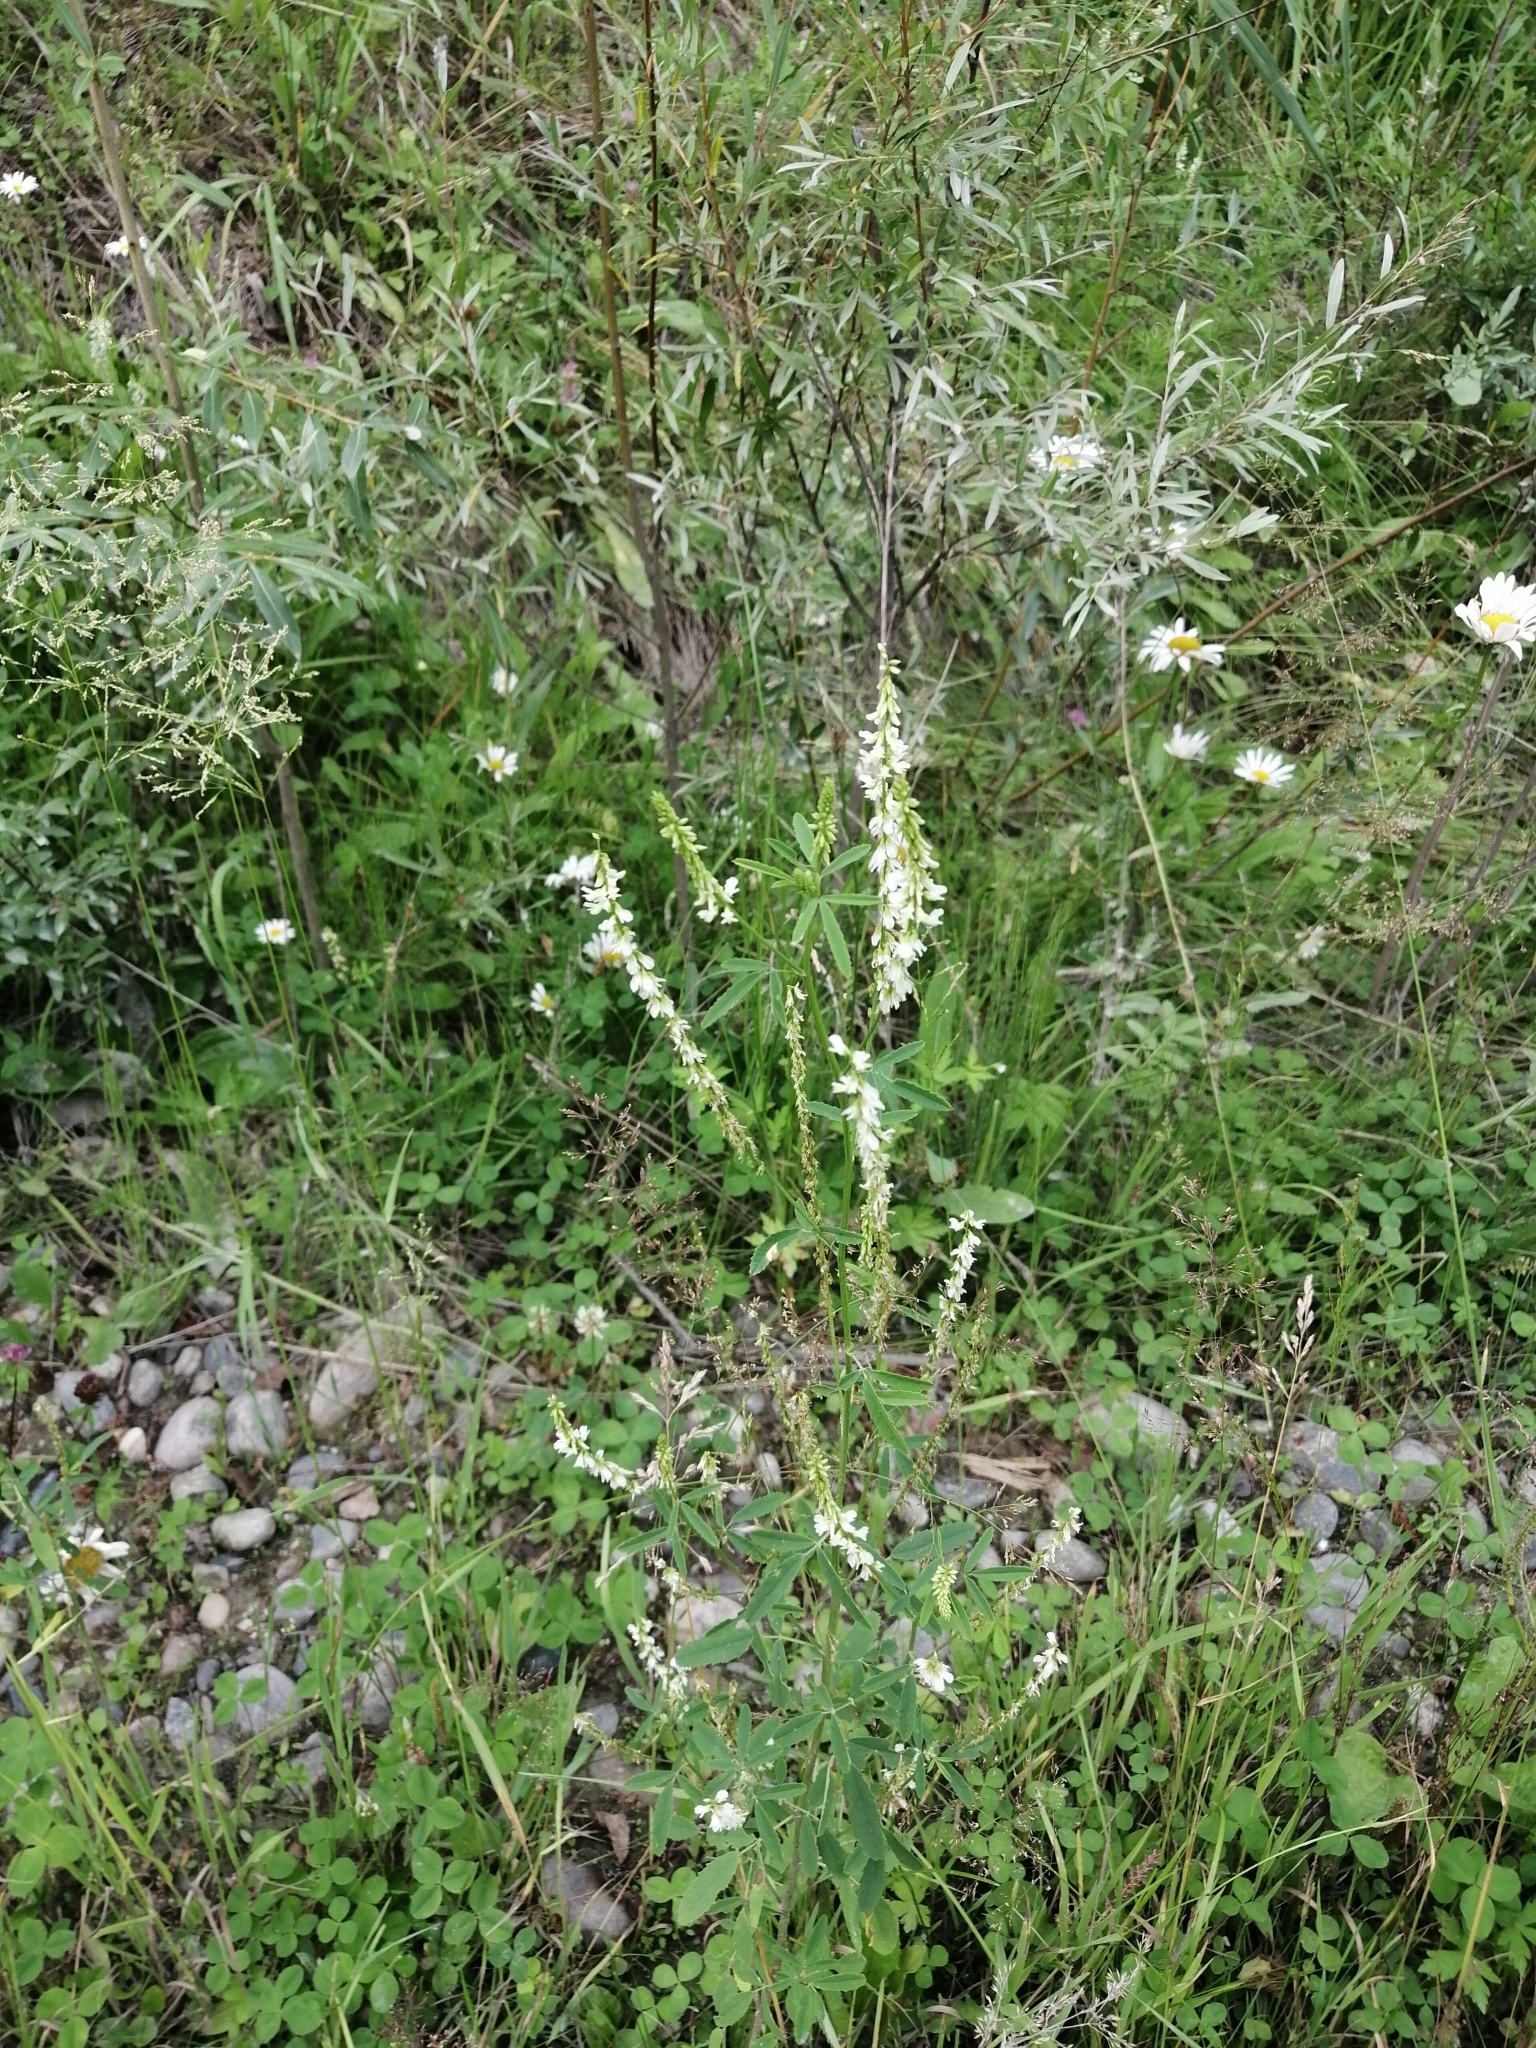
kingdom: Plantae
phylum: Tracheophyta
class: Magnoliopsida
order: Fabales
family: Fabaceae
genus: Melilotus
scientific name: Melilotus albus
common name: White melilot
